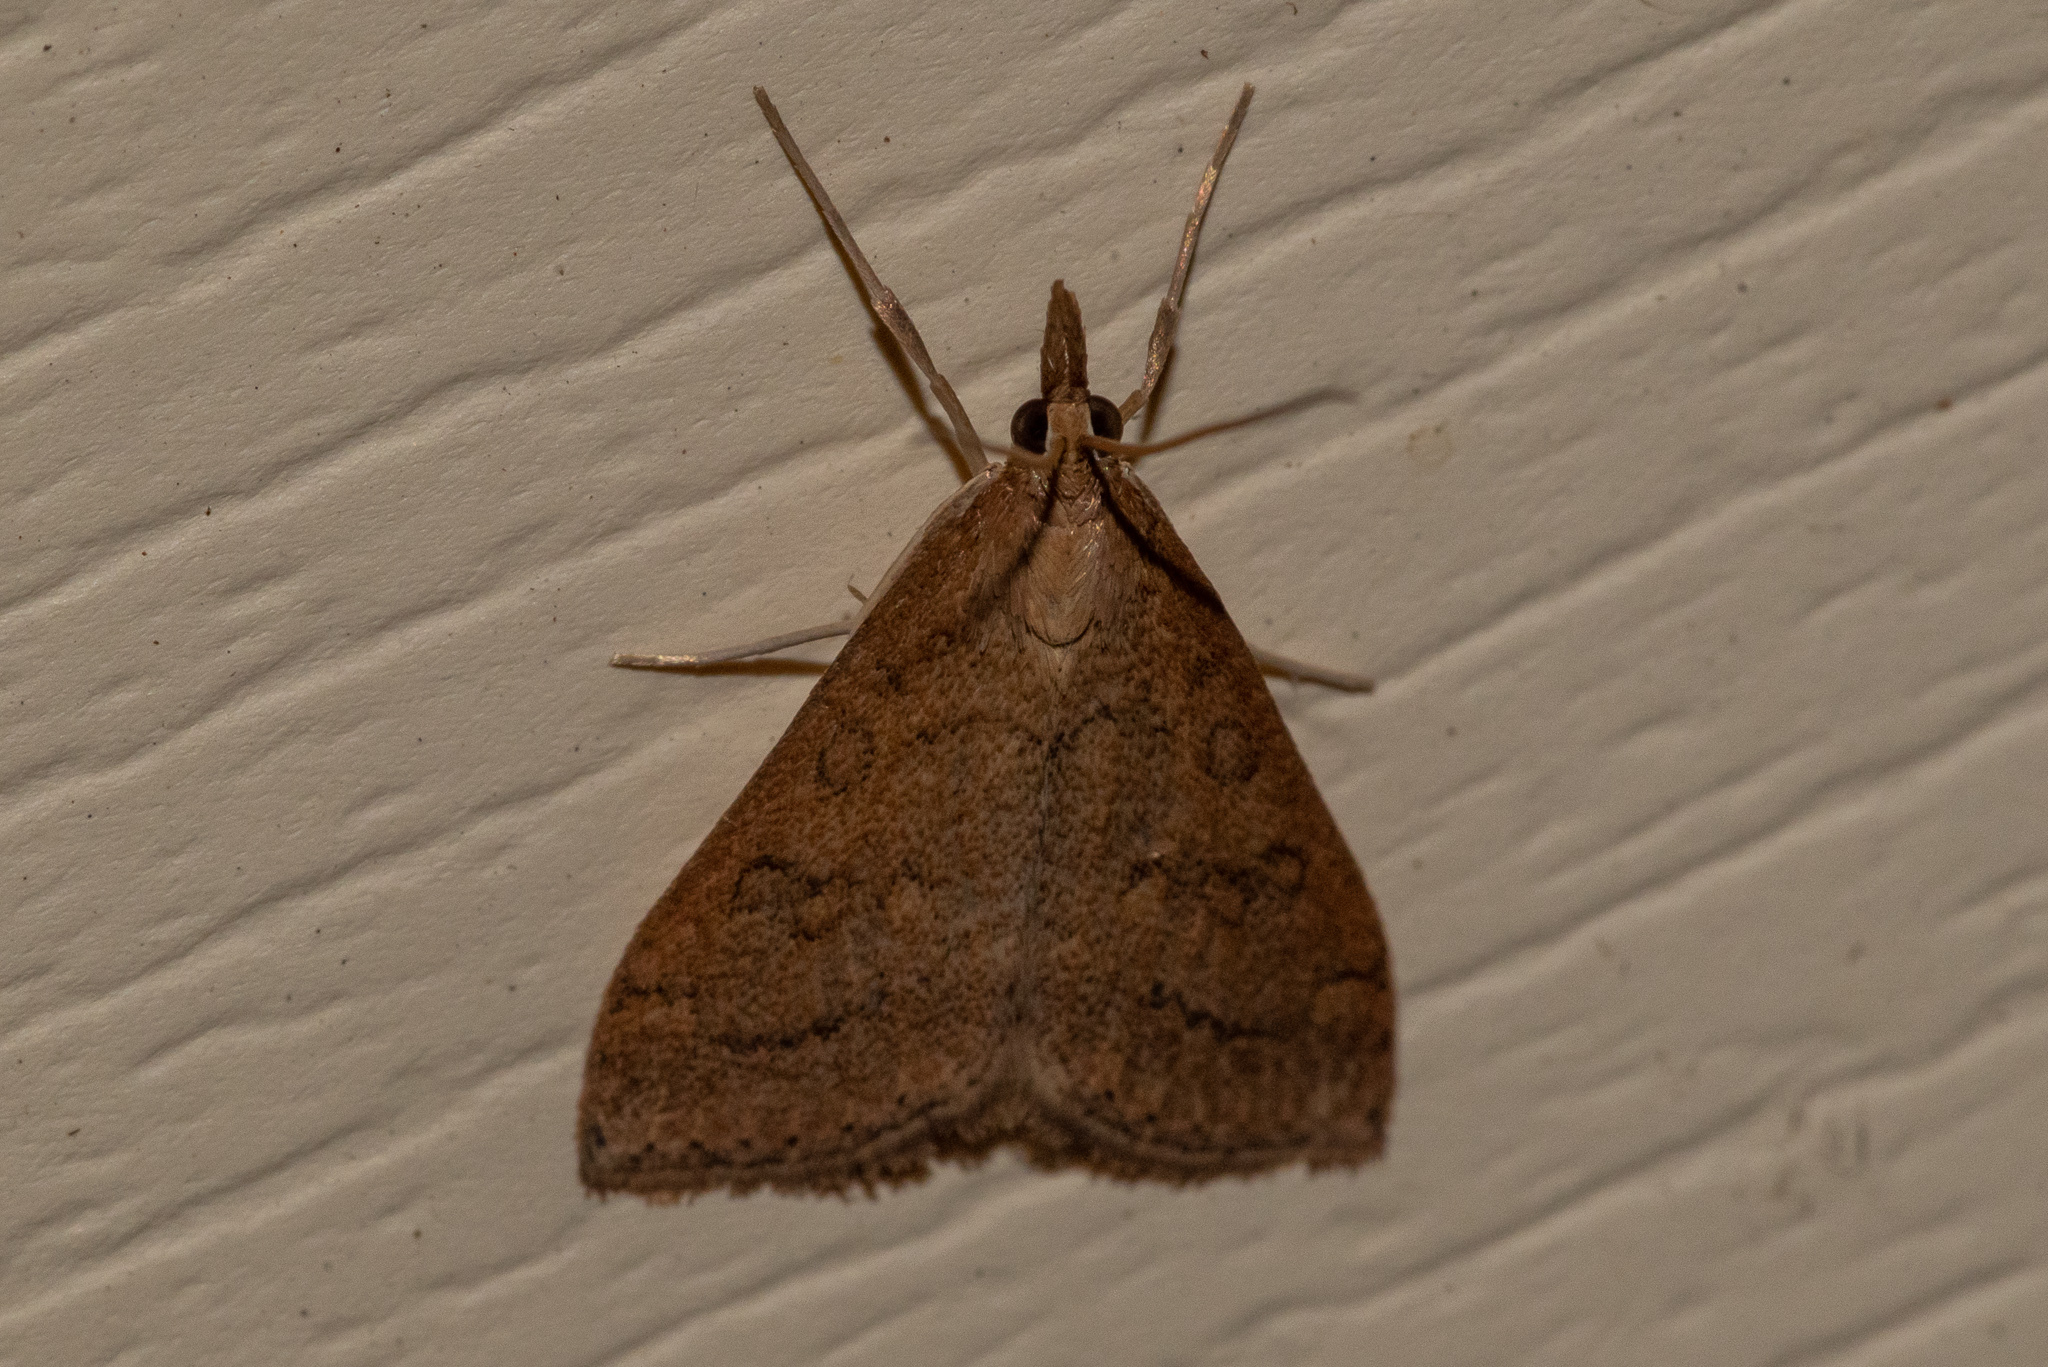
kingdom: Animalia
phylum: Arthropoda
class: Insecta
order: Lepidoptera
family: Crambidae
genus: Udea
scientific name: Udea rubigalis
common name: Celery leaftier moth
